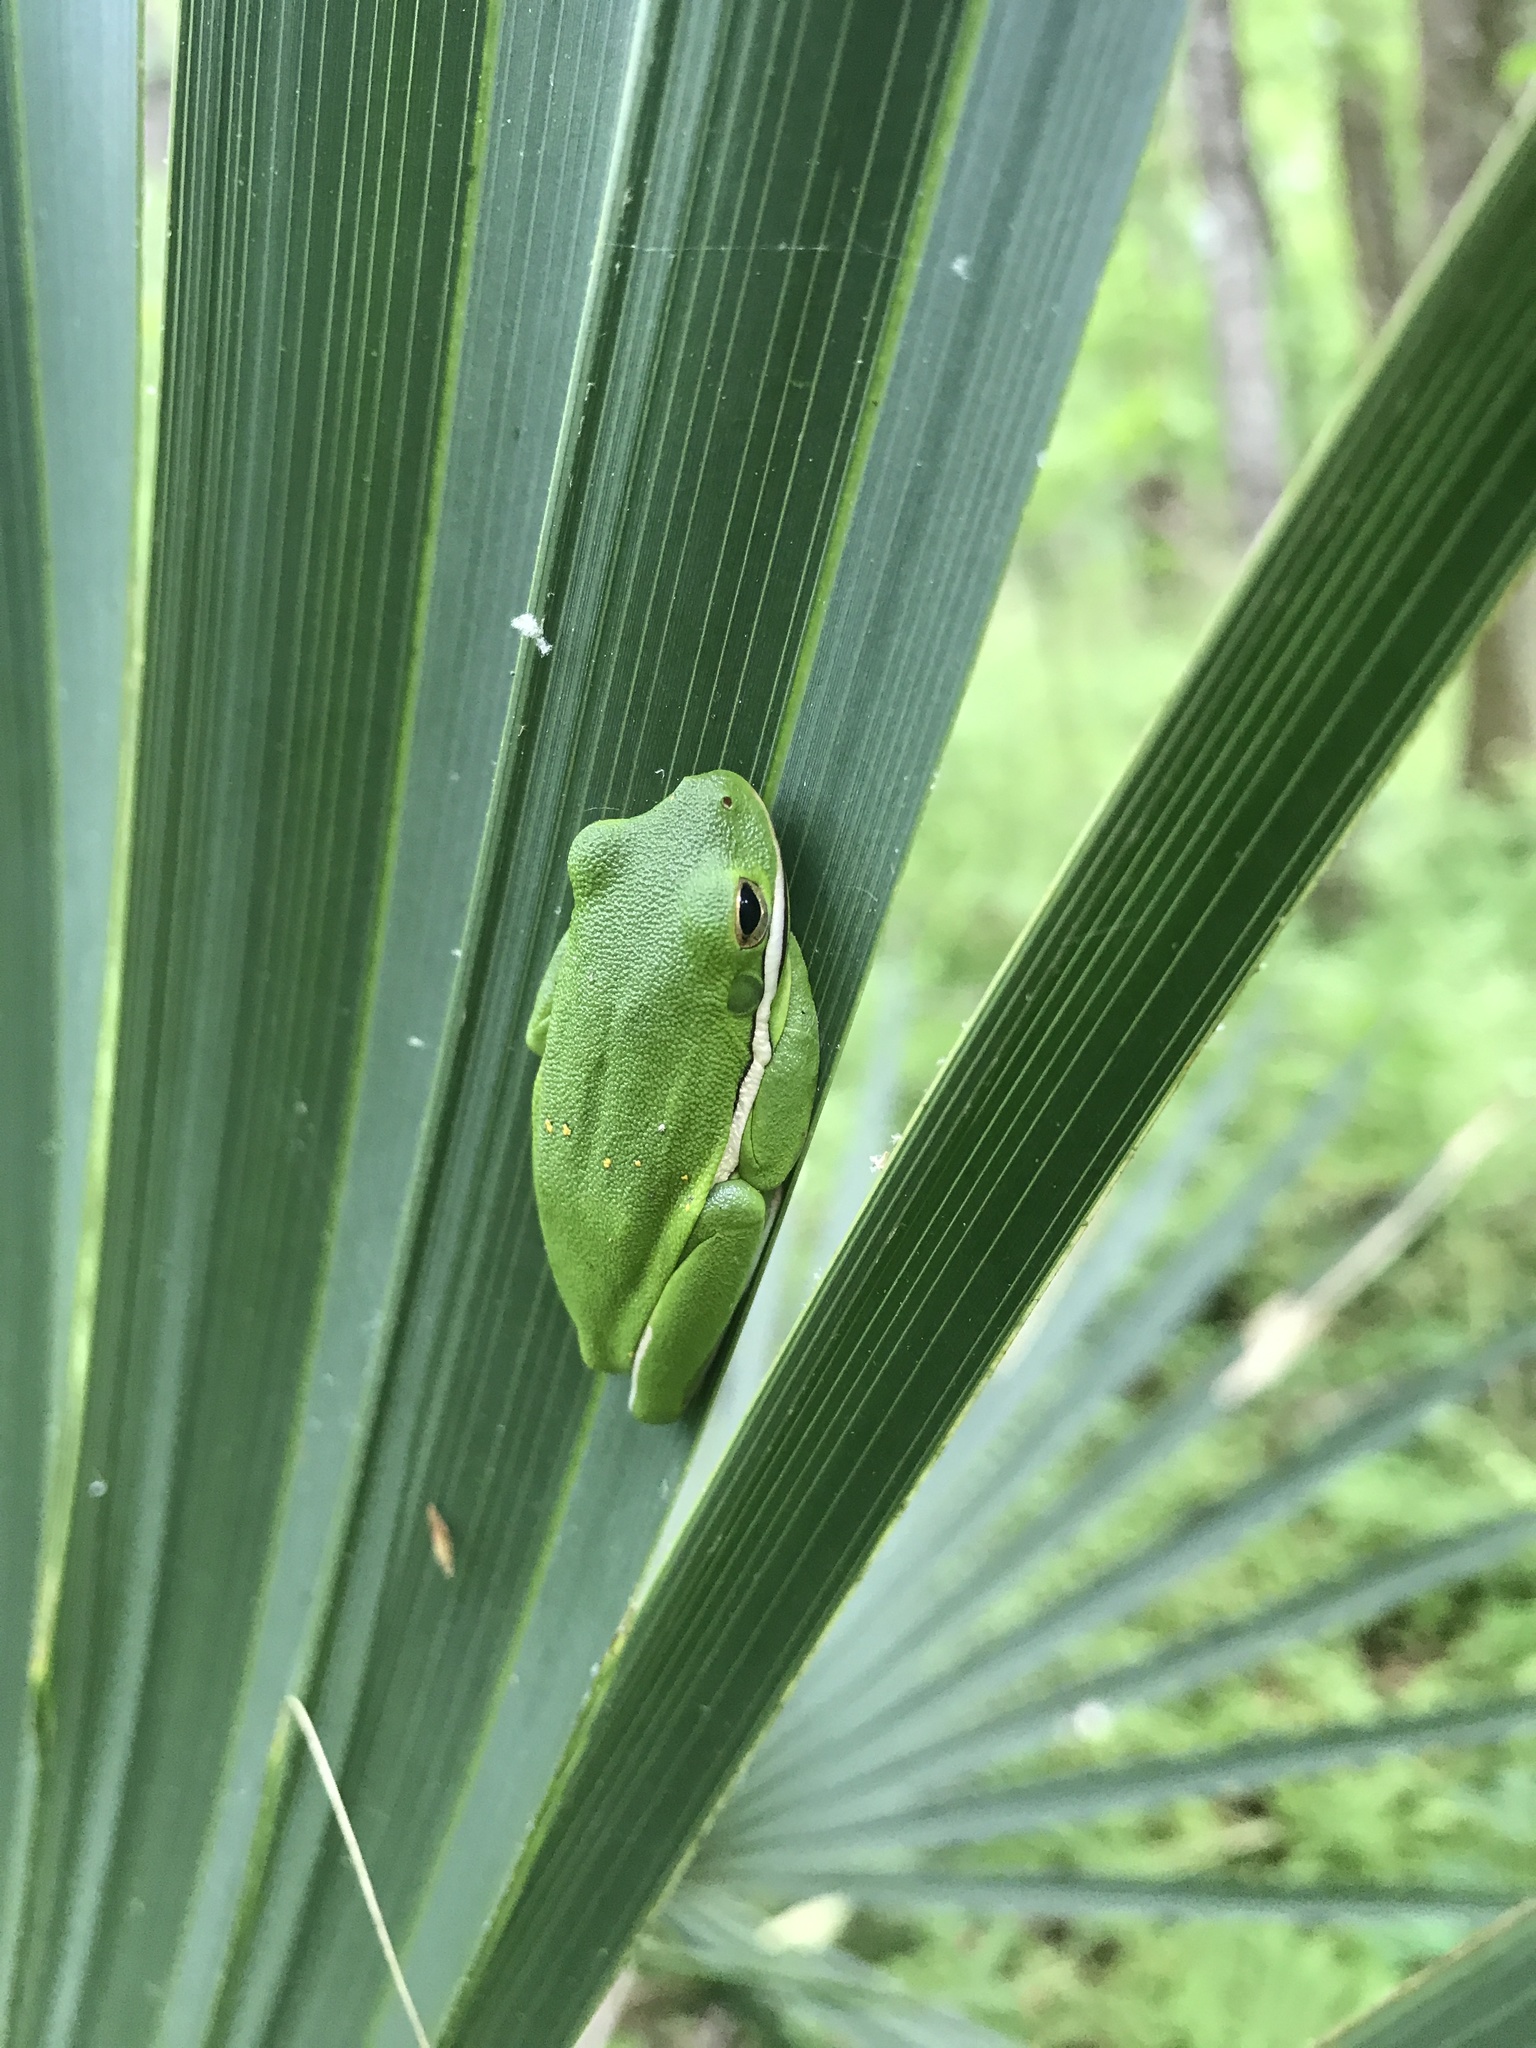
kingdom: Animalia
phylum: Chordata
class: Amphibia
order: Anura
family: Hylidae
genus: Dryophytes
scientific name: Dryophytes cinereus
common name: Green treefrog
